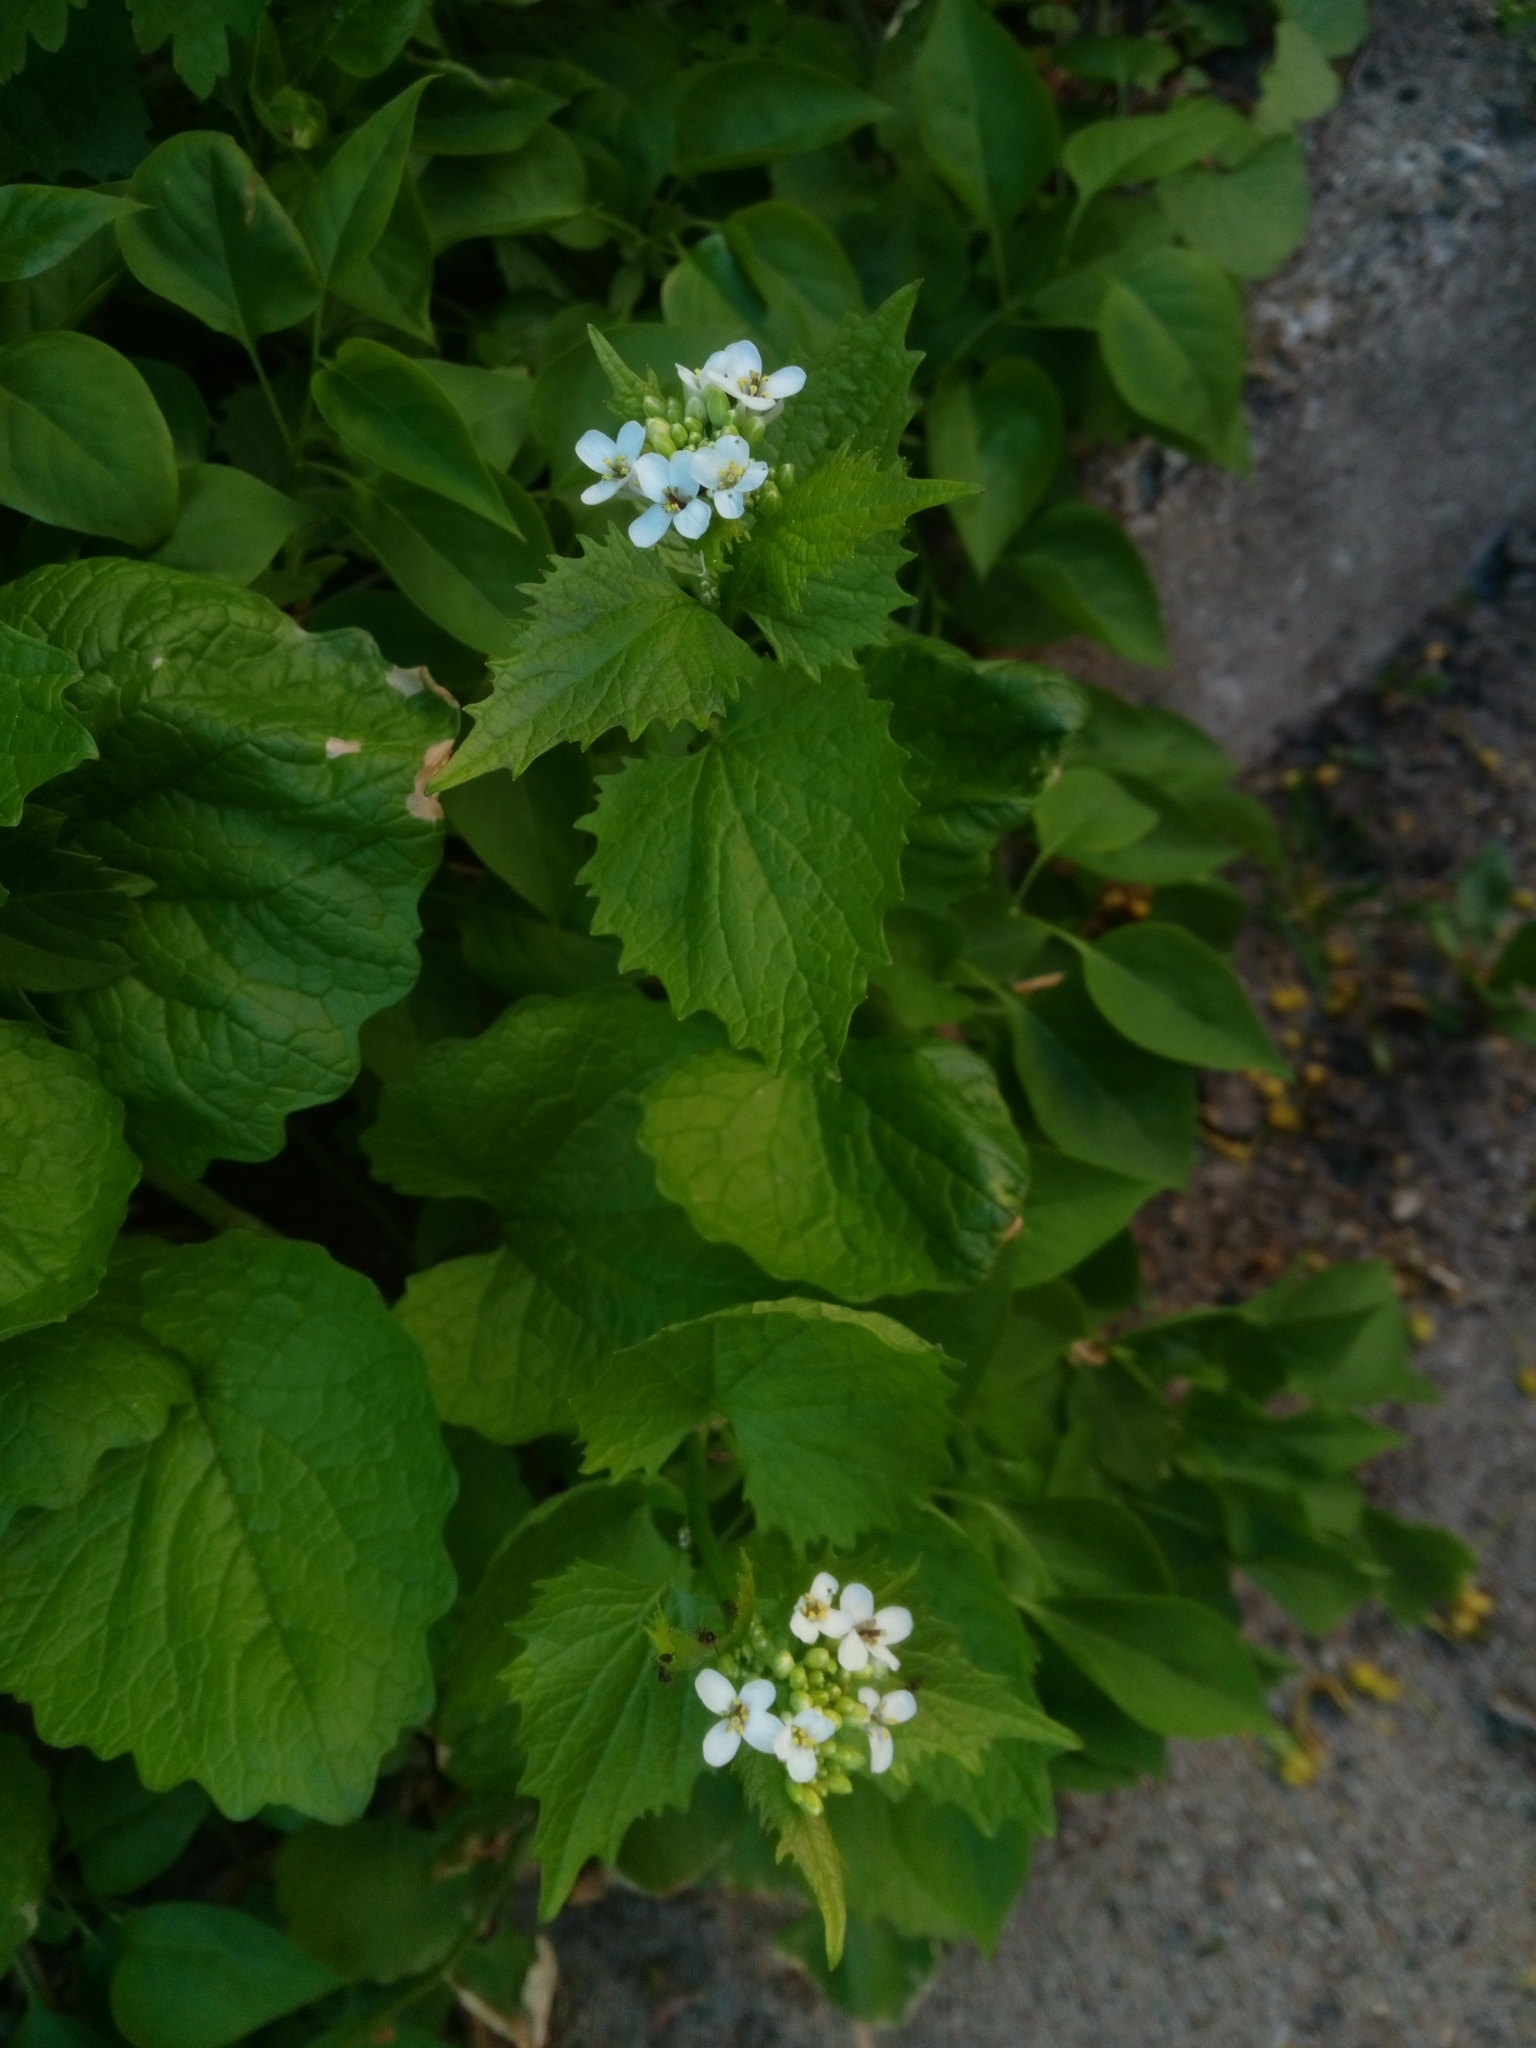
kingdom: Plantae
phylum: Tracheophyta
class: Magnoliopsida
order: Brassicales
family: Brassicaceae
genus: Alliaria
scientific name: Alliaria petiolata
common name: Garlic mustard
